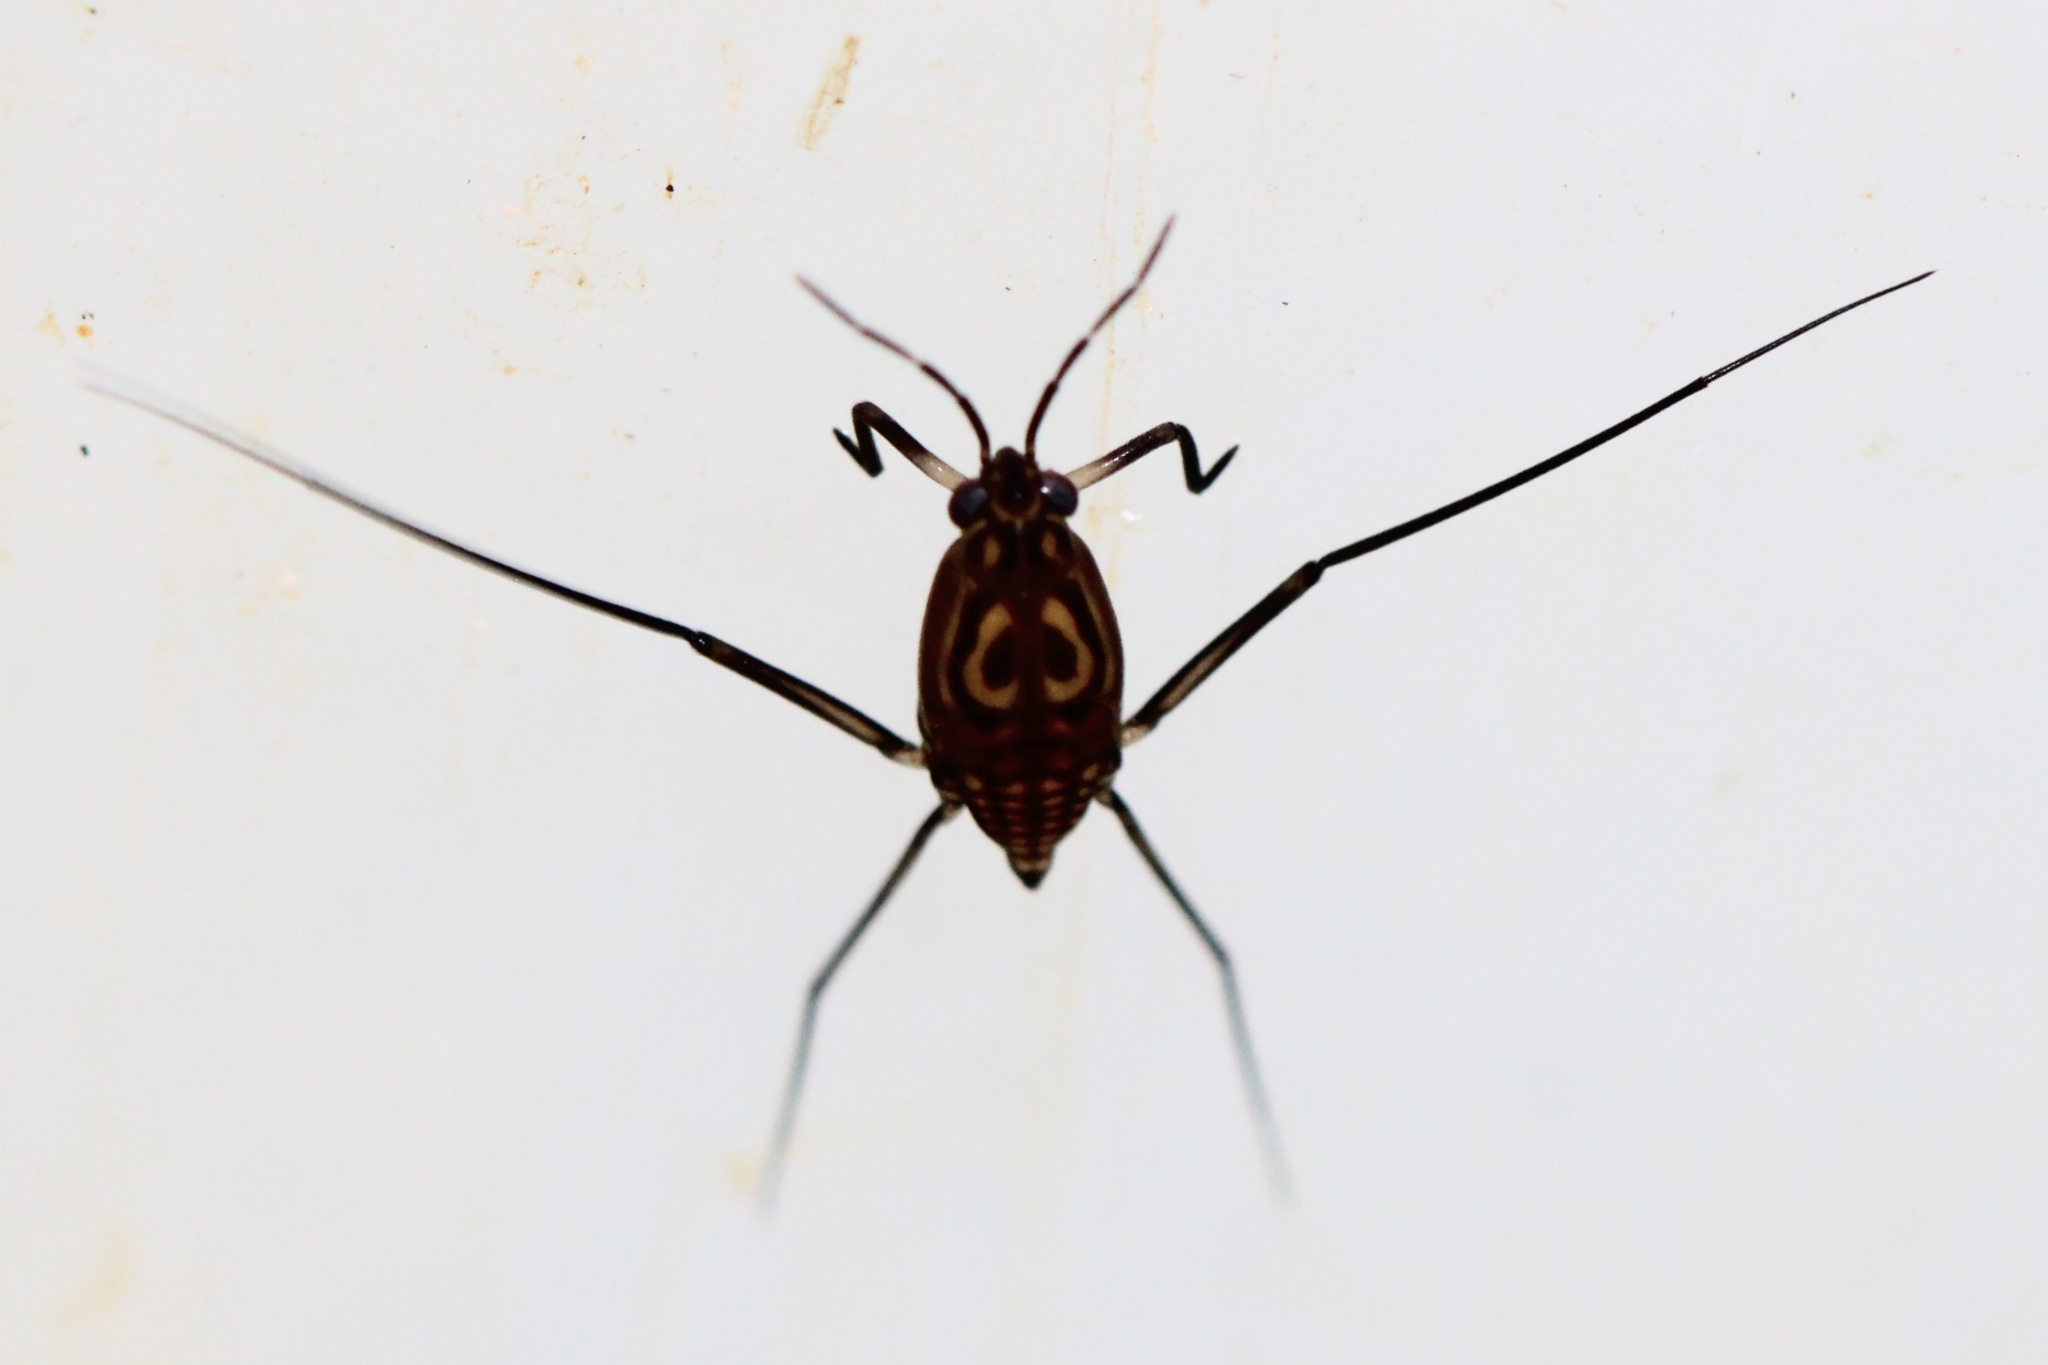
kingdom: Animalia
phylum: Arthropoda
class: Insecta
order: Hemiptera
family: Gerridae
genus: Trepobates
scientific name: Trepobates pictus
